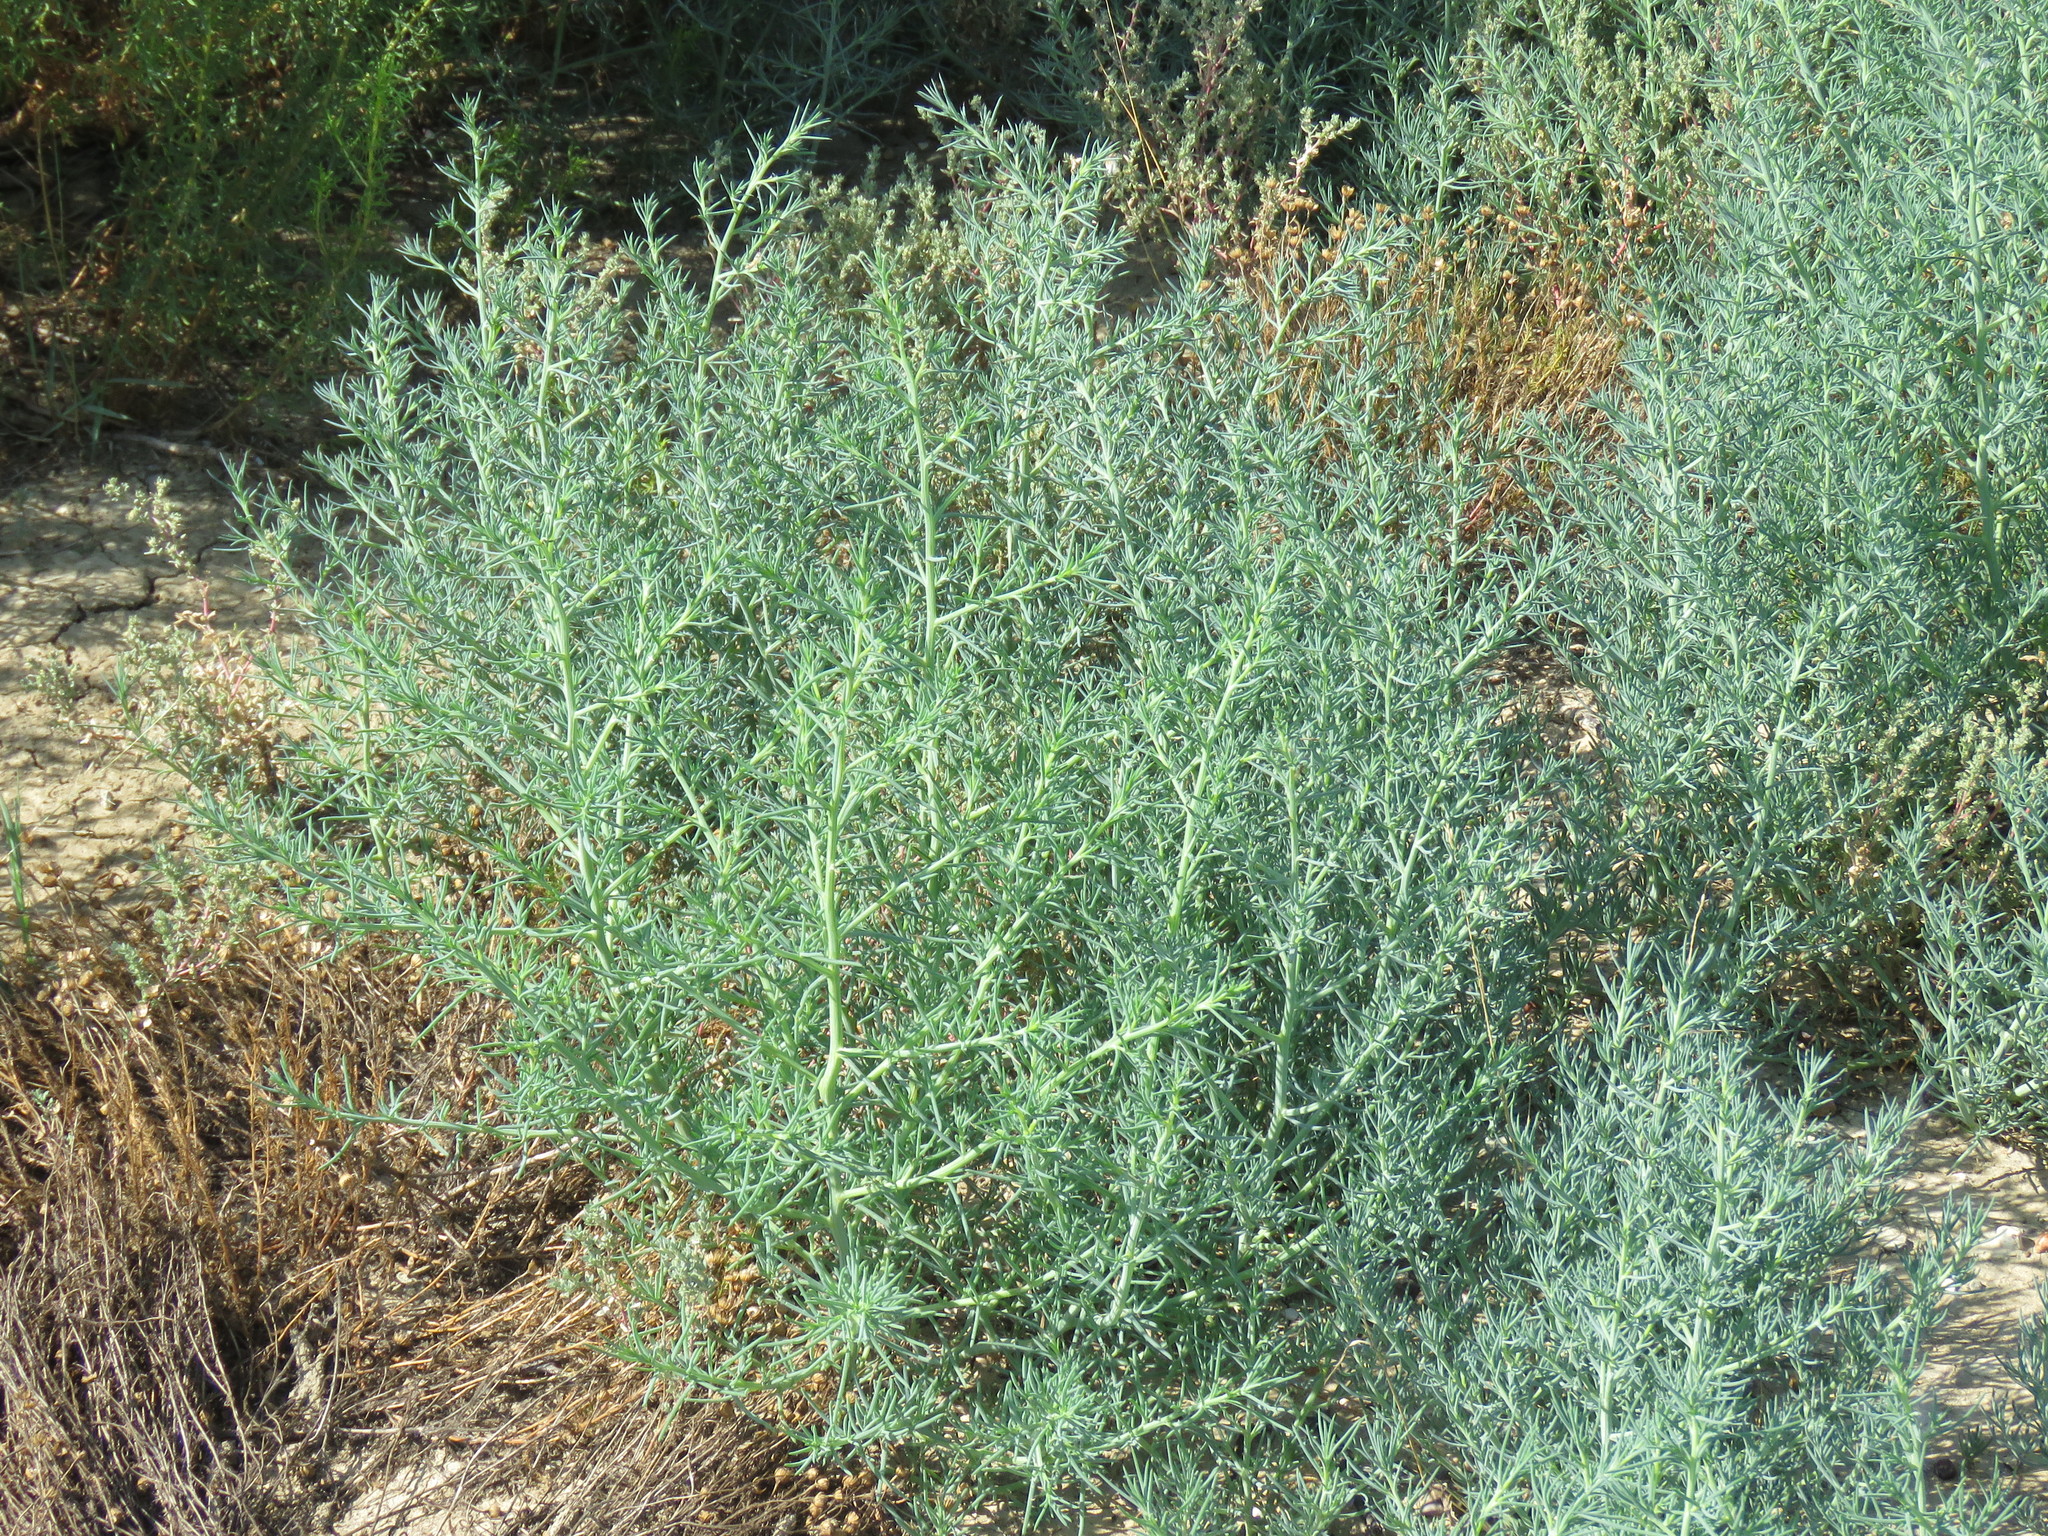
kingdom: Plantae
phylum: Tracheophyta
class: Magnoliopsida
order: Caryophyllales
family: Amaranthaceae
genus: Salsola
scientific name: Salsola tragus
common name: Prickly russian thistle
